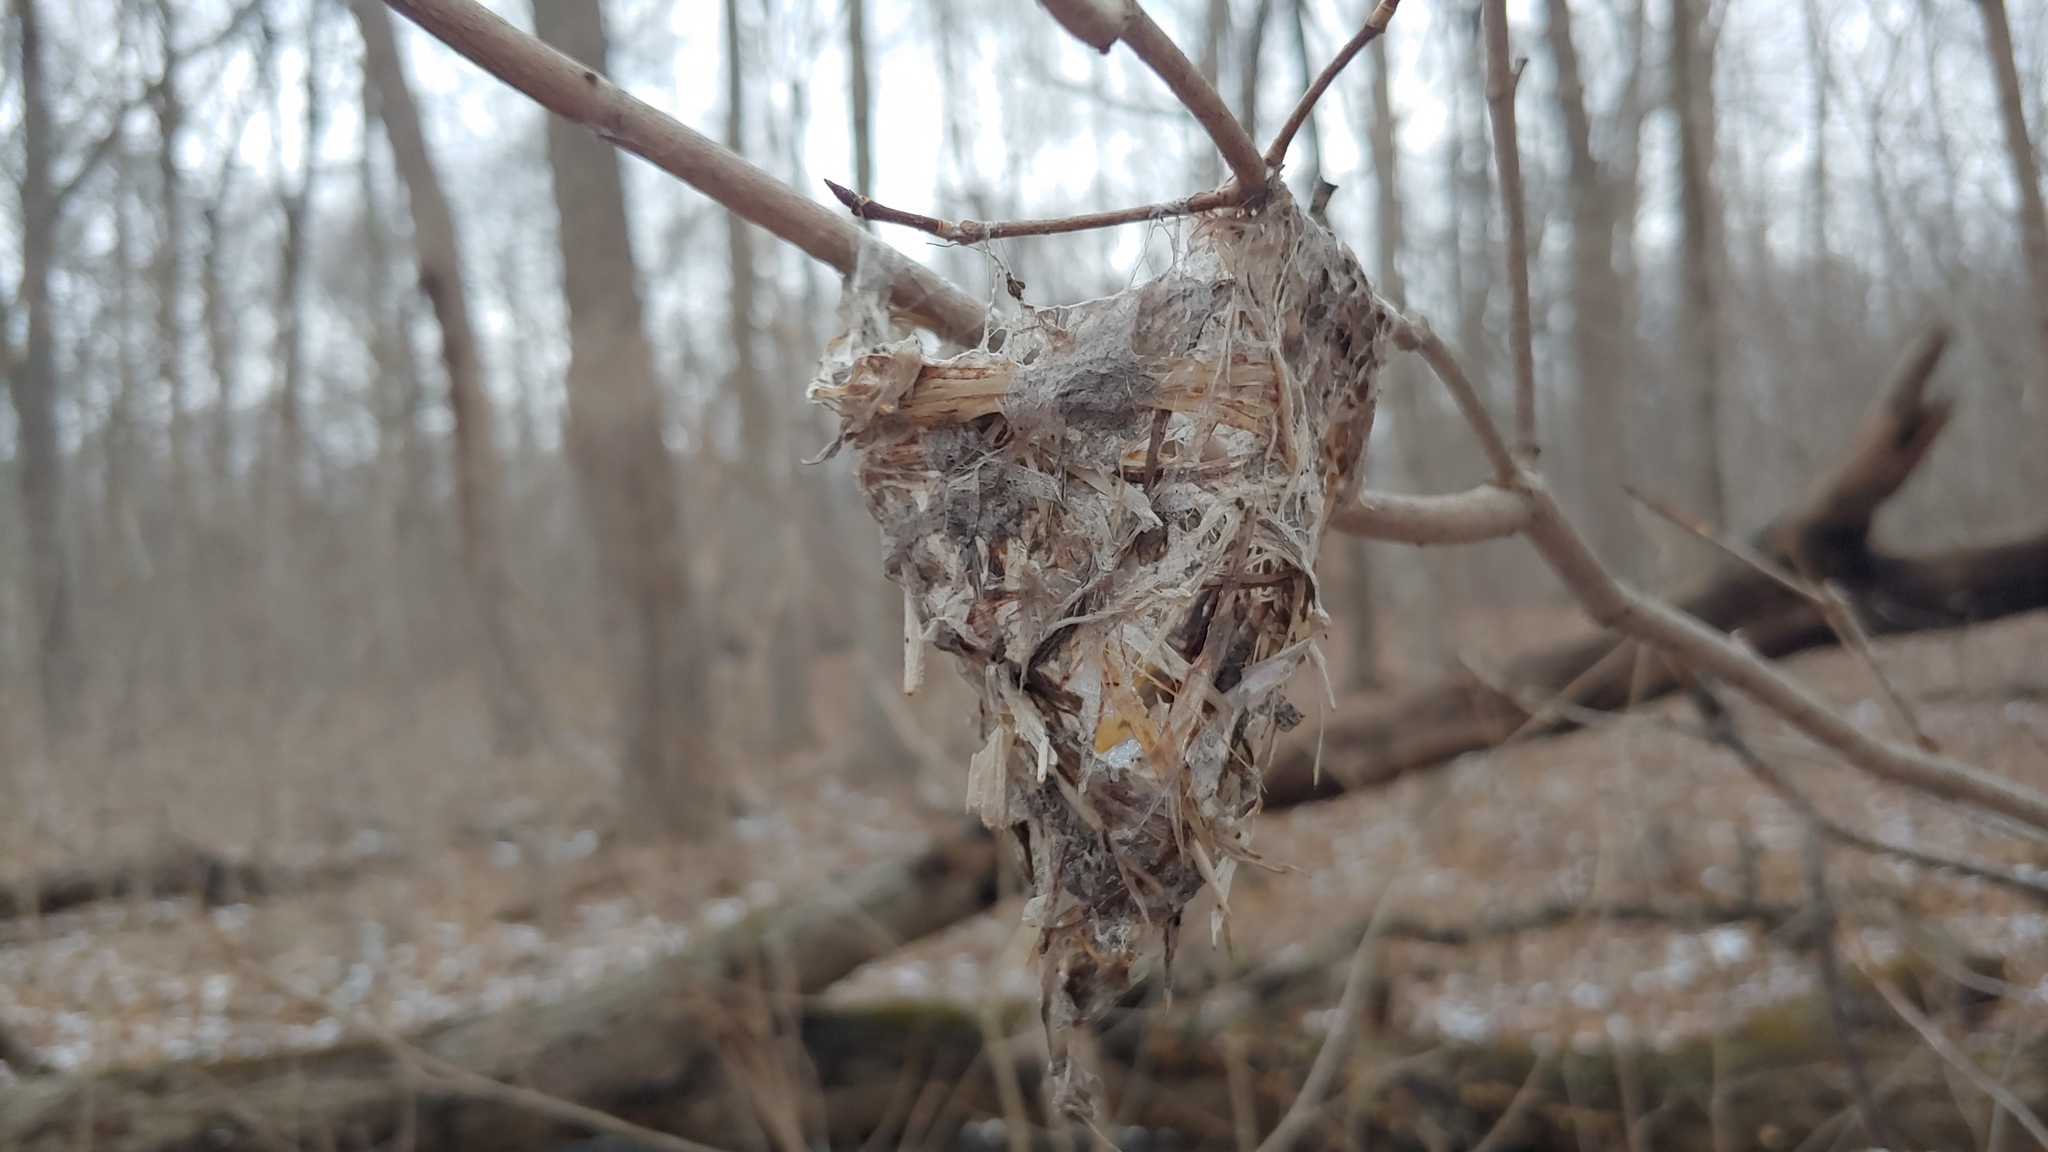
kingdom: Animalia
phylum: Chordata
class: Aves
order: Passeriformes
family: Vireonidae
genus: Vireo
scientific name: Vireo
